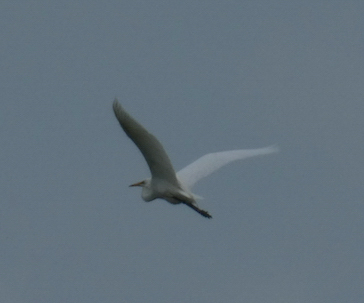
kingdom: Animalia
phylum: Chordata
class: Aves
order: Pelecaniformes
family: Ardeidae
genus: Ardea
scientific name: Ardea alba
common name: Great egret
